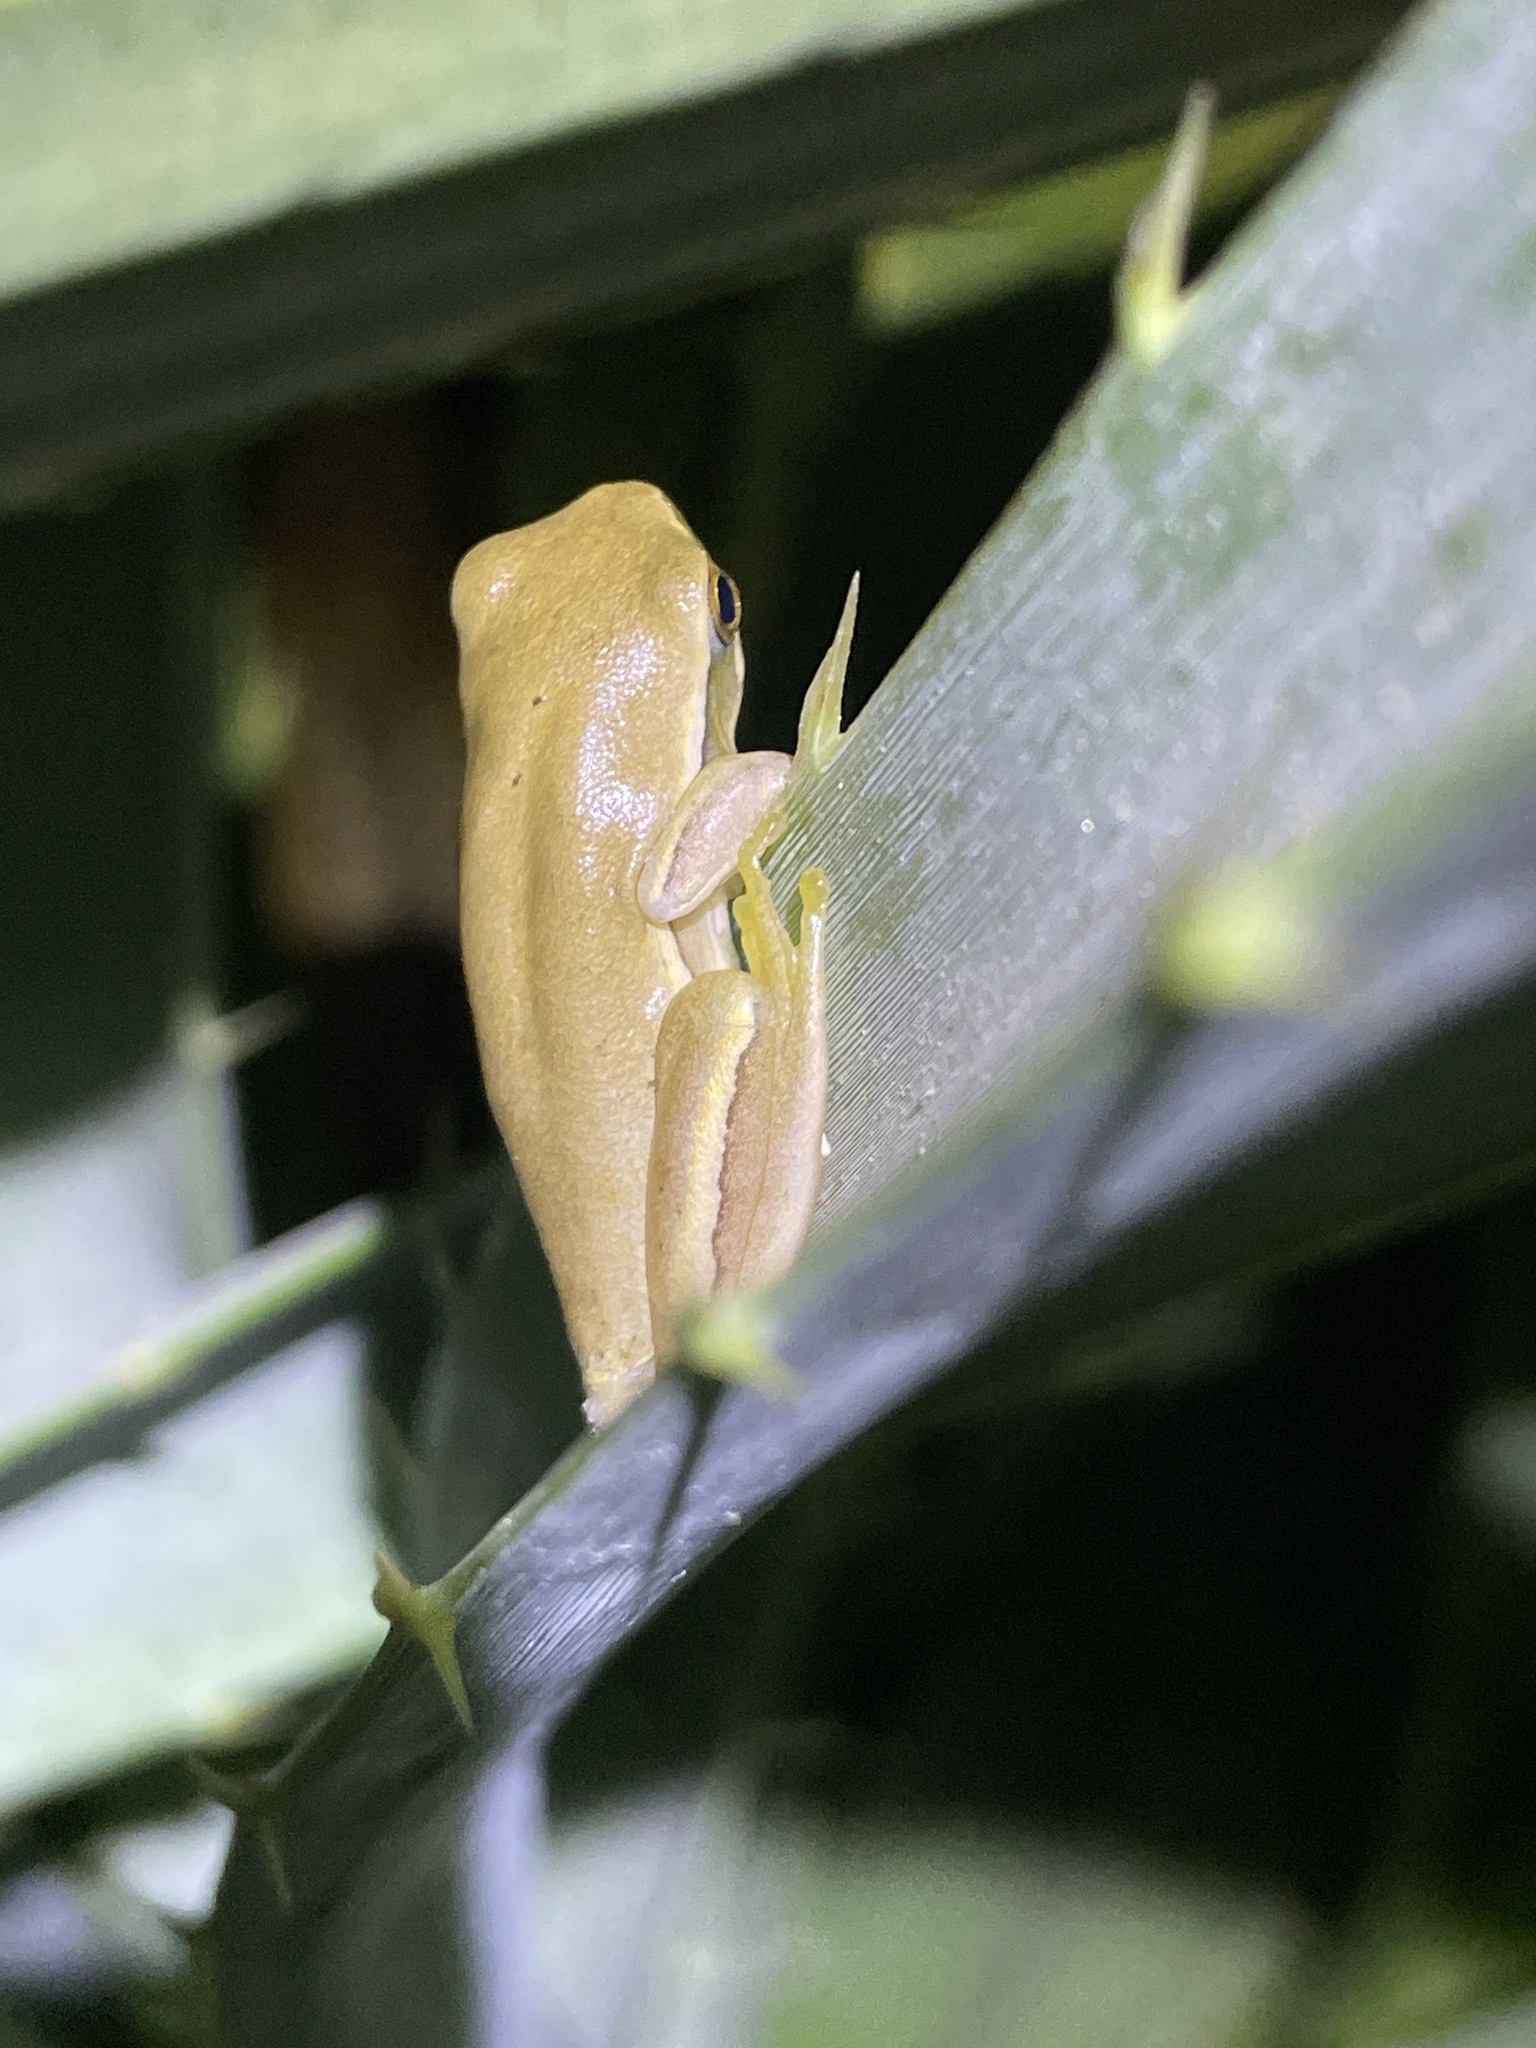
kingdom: Animalia
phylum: Chordata
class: Amphibia
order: Anura
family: Hylidae
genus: Boana
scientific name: Boana pulchella
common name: Montevideo treefrog
